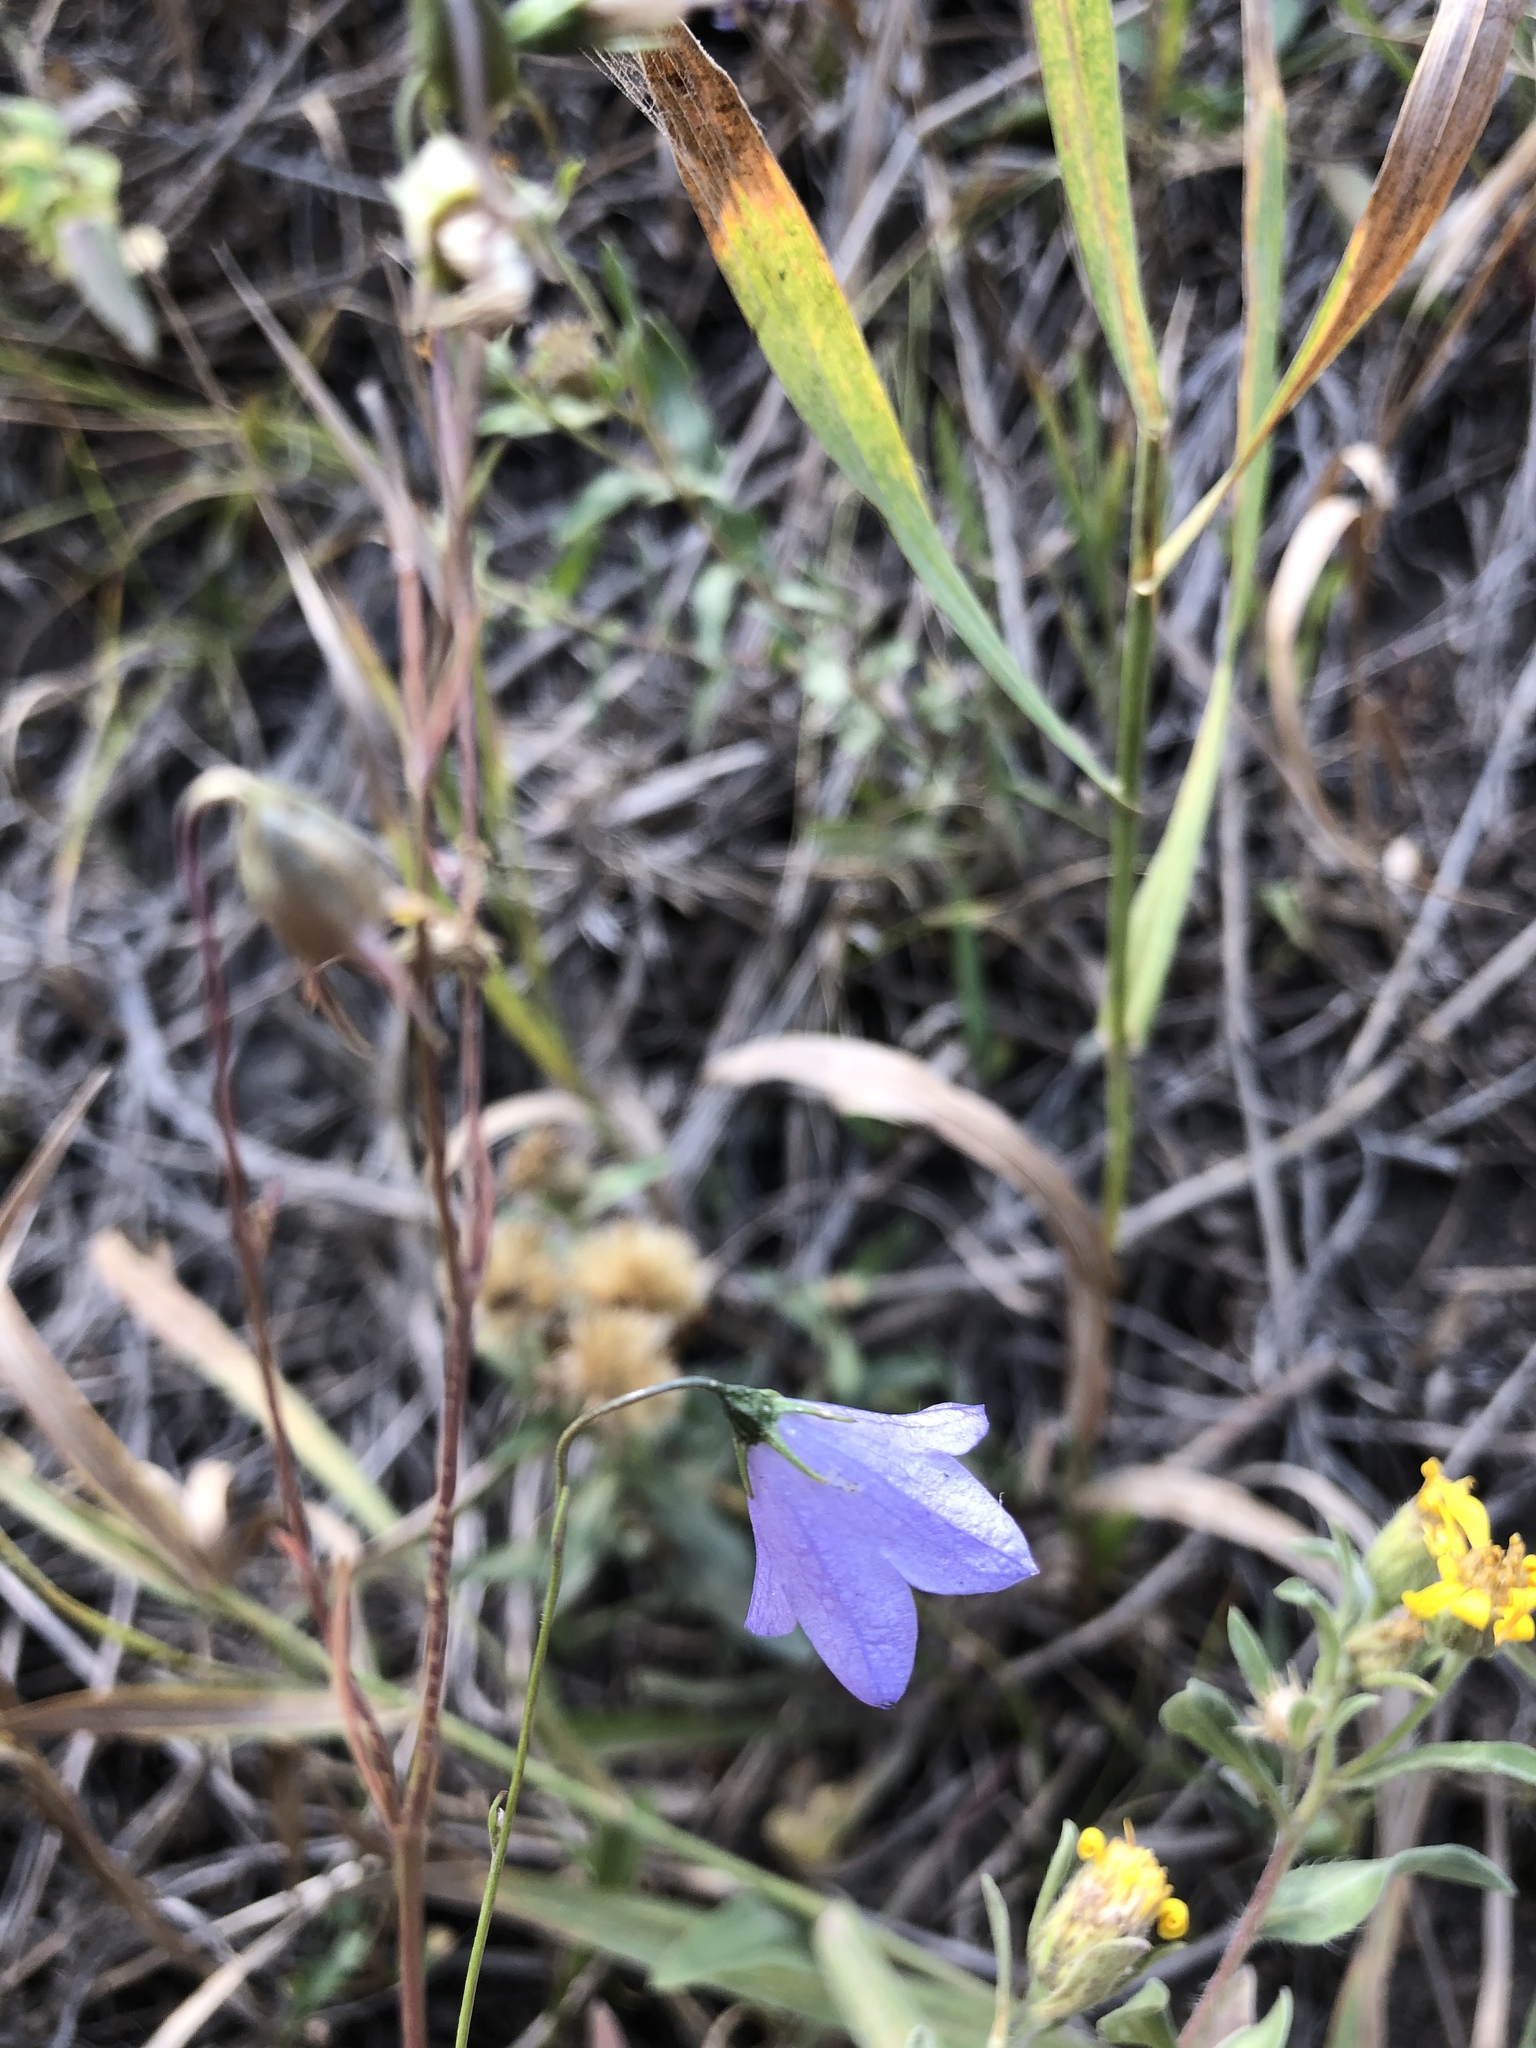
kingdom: Plantae
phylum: Tracheophyta
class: Magnoliopsida
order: Asterales
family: Campanulaceae
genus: Campanula
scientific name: Campanula petiolata
